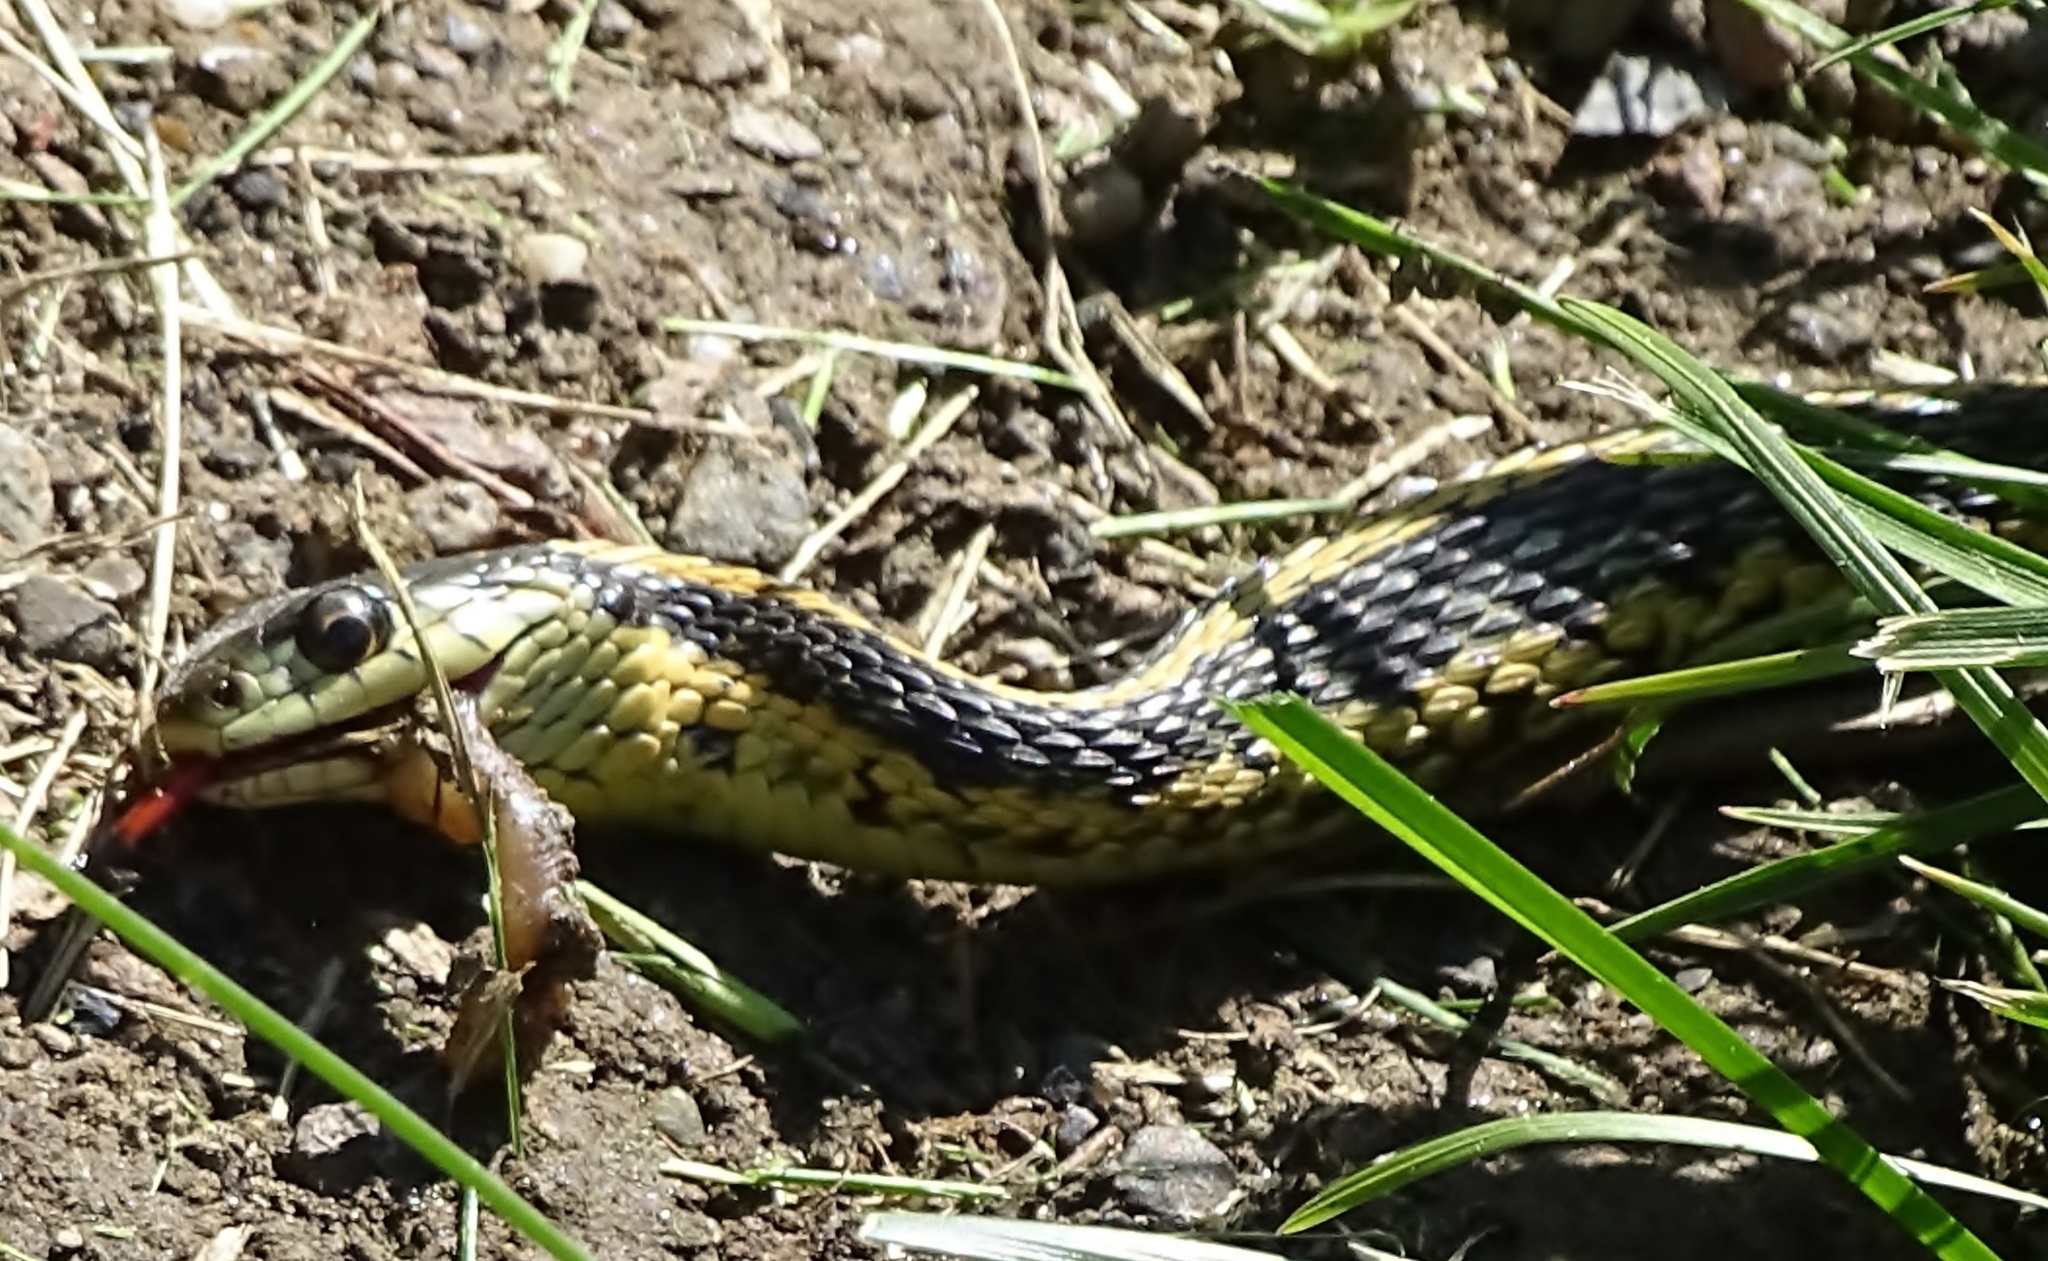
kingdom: Animalia
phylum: Chordata
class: Squamata
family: Colubridae
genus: Thamnophis
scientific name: Thamnophis sirtalis
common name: Common garter snake
